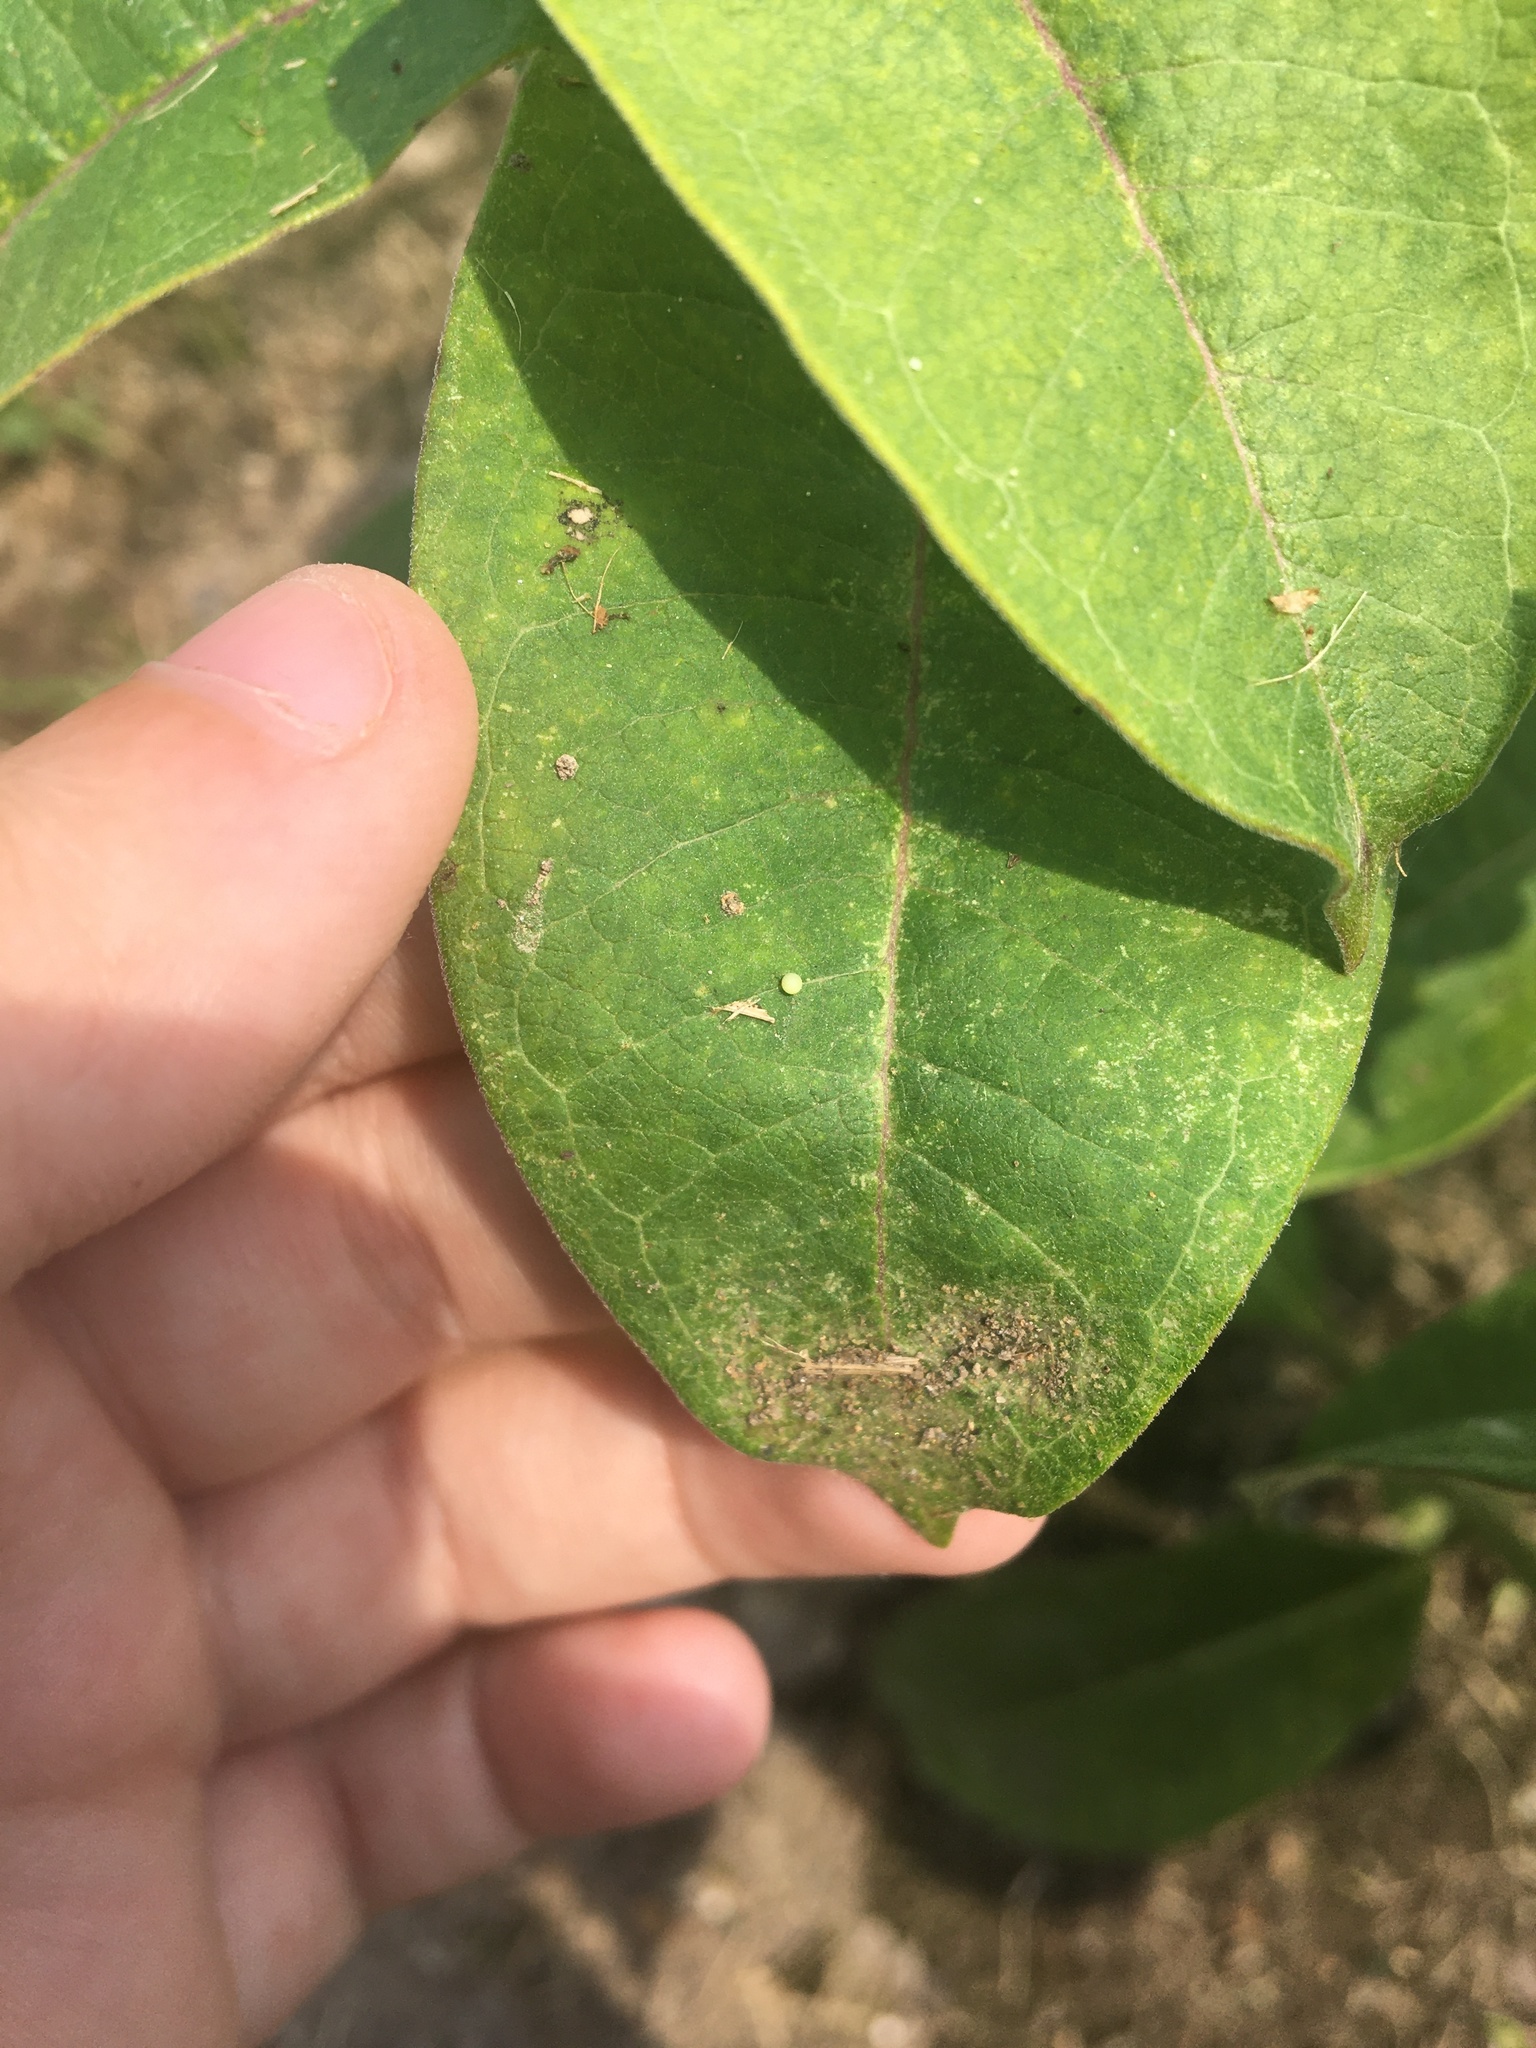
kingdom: Animalia
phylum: Arthropoda
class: Insecta
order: Lepidoptera
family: Nymphalidae
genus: Danaus
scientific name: Danaus plexippus
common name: Monarch
